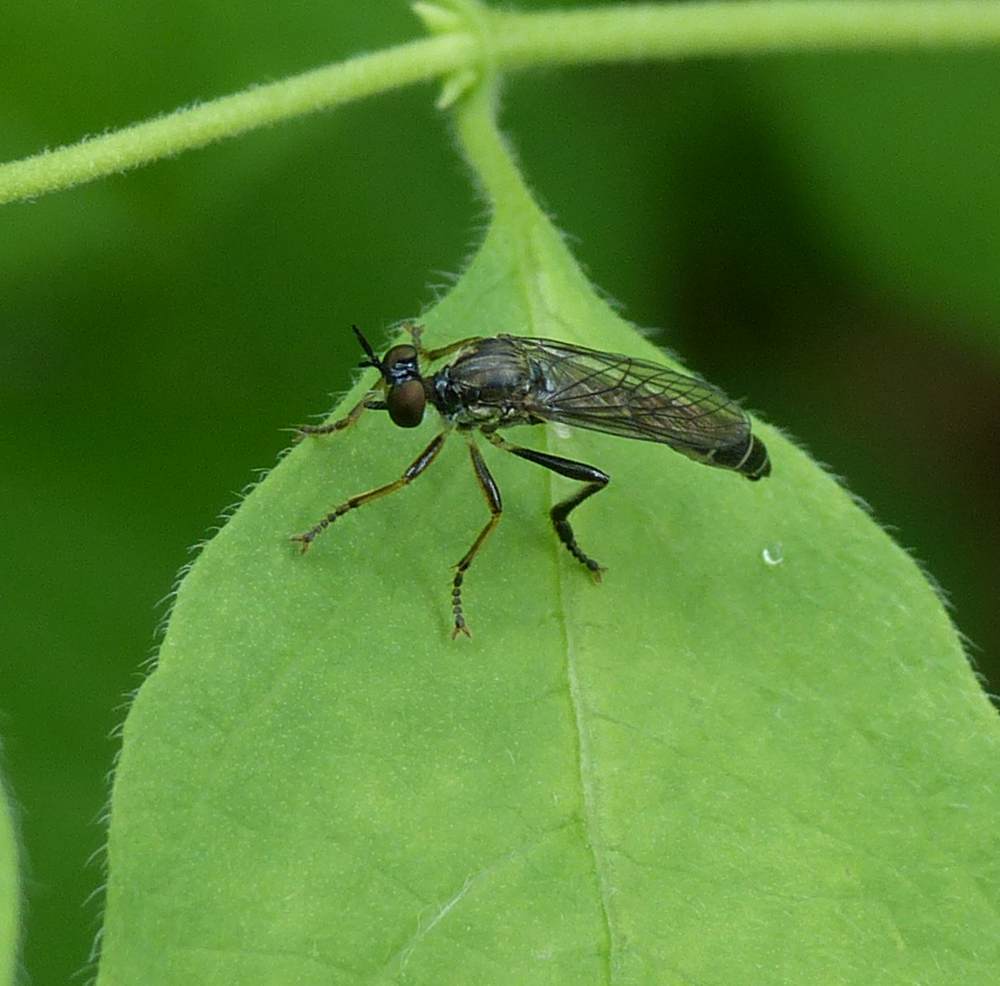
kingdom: Animalia
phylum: Arthropoda
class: Insecta
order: Diptera
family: Asilidae
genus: Dioctria
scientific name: Dioctria hyalipennis
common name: Stripe-legged robberfly
